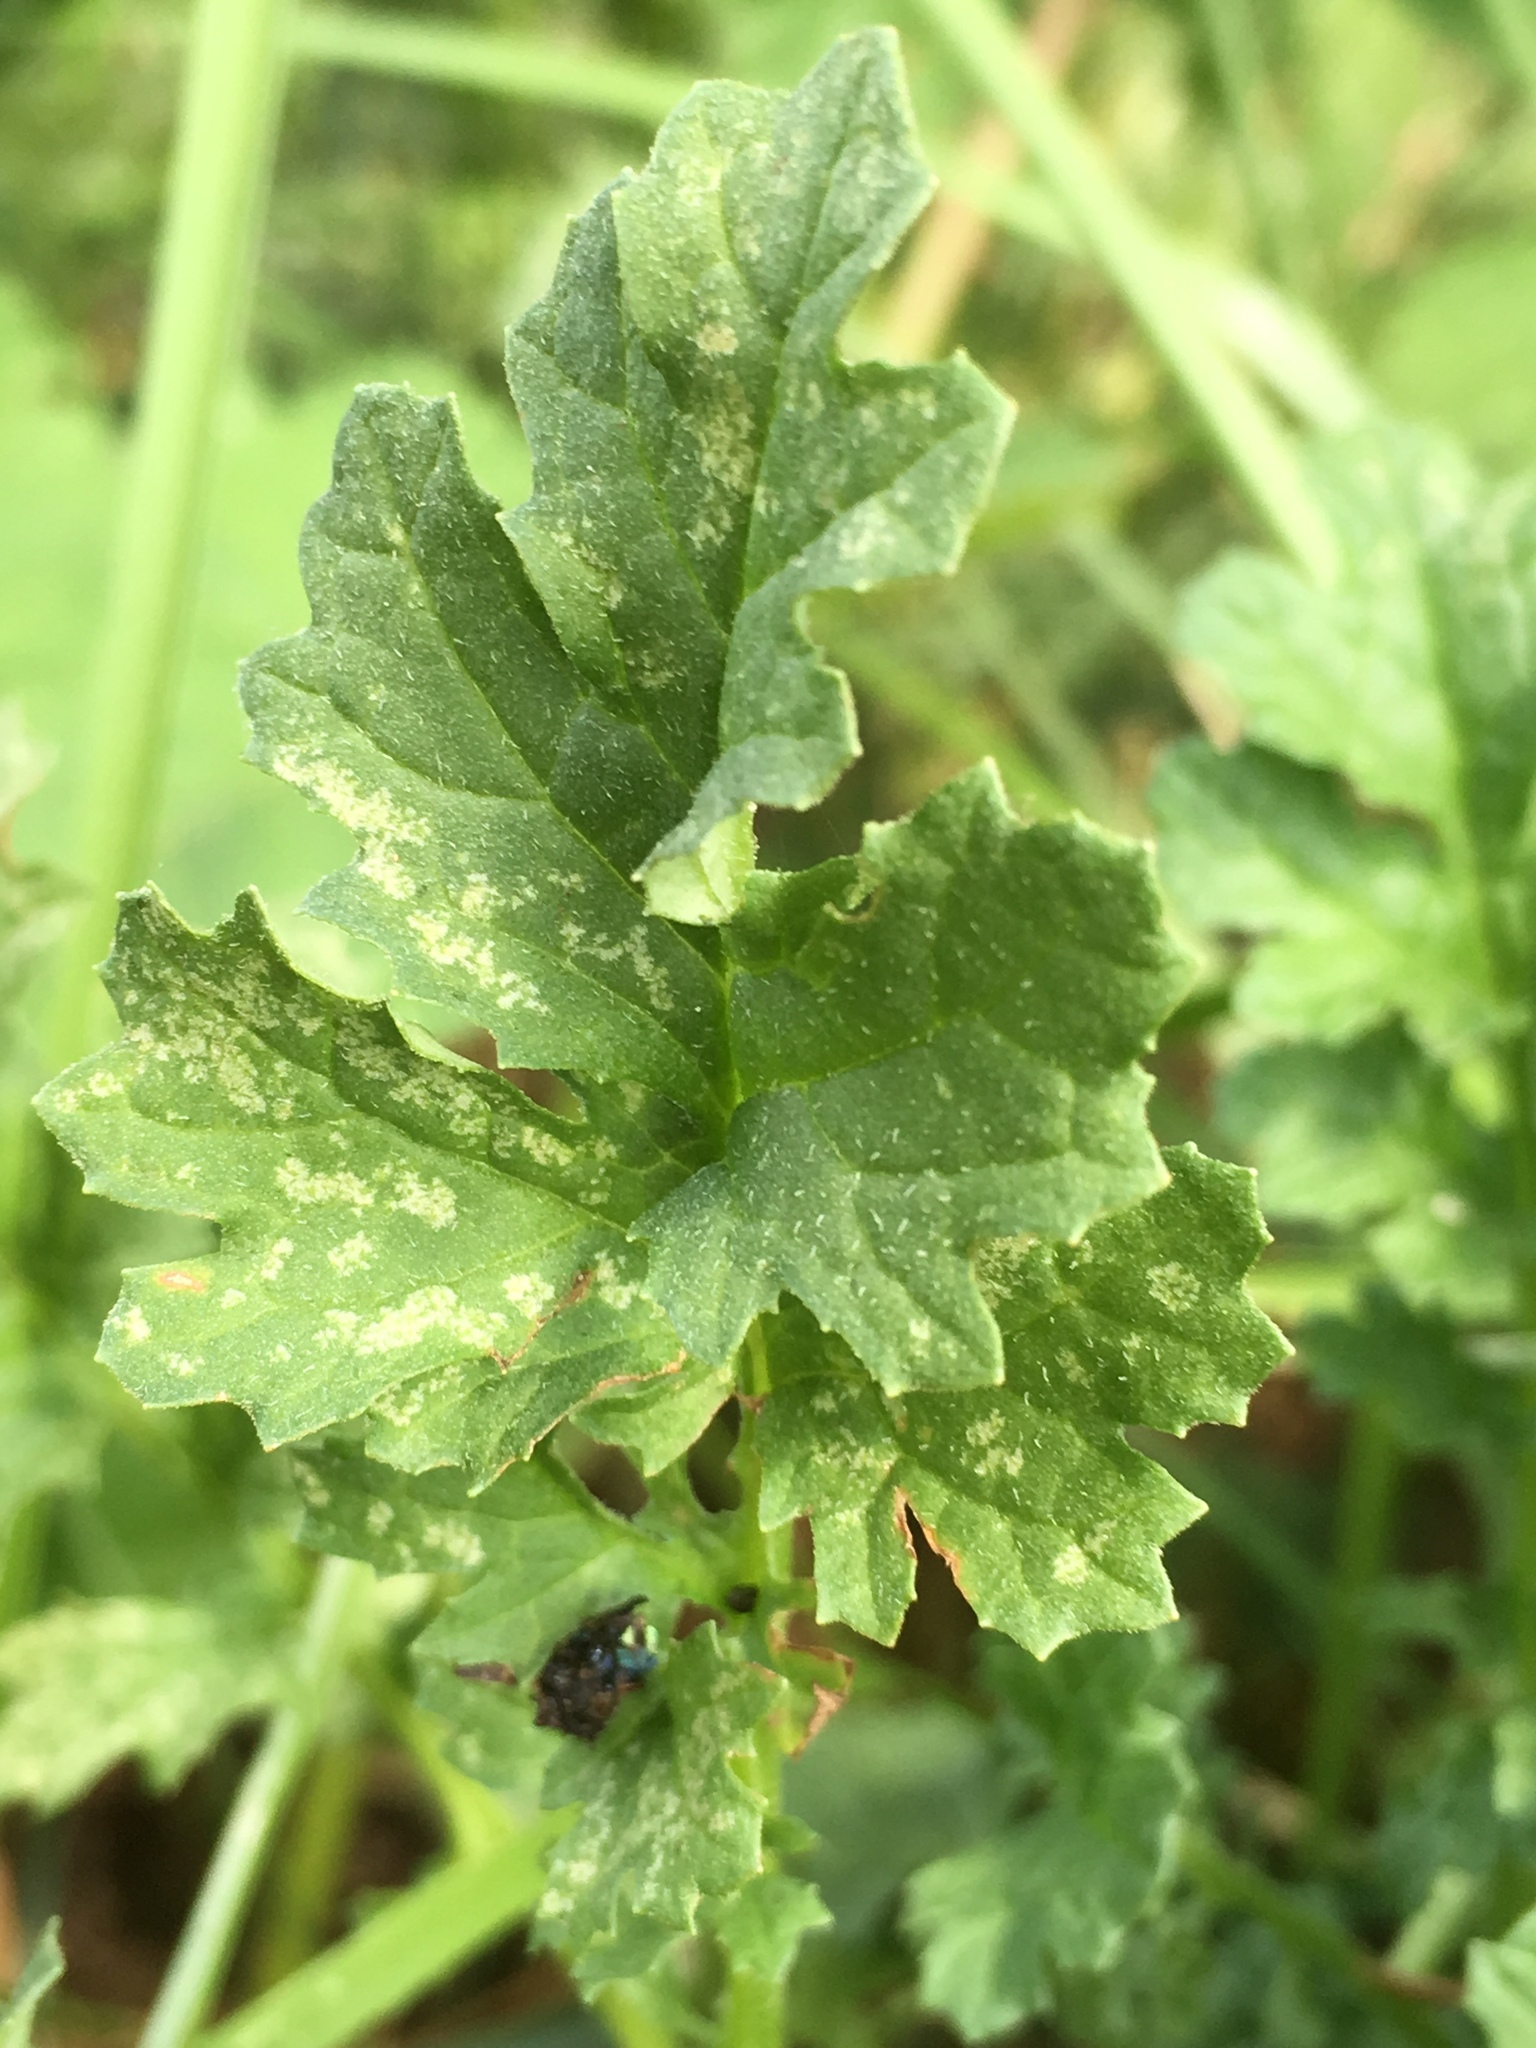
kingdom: Plantae
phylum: Tracheophyta
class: Magnoliopsida
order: Asterales
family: Asteraceae
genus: Jacobaea
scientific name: Jacobaea vulgaris
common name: Stinking willie
